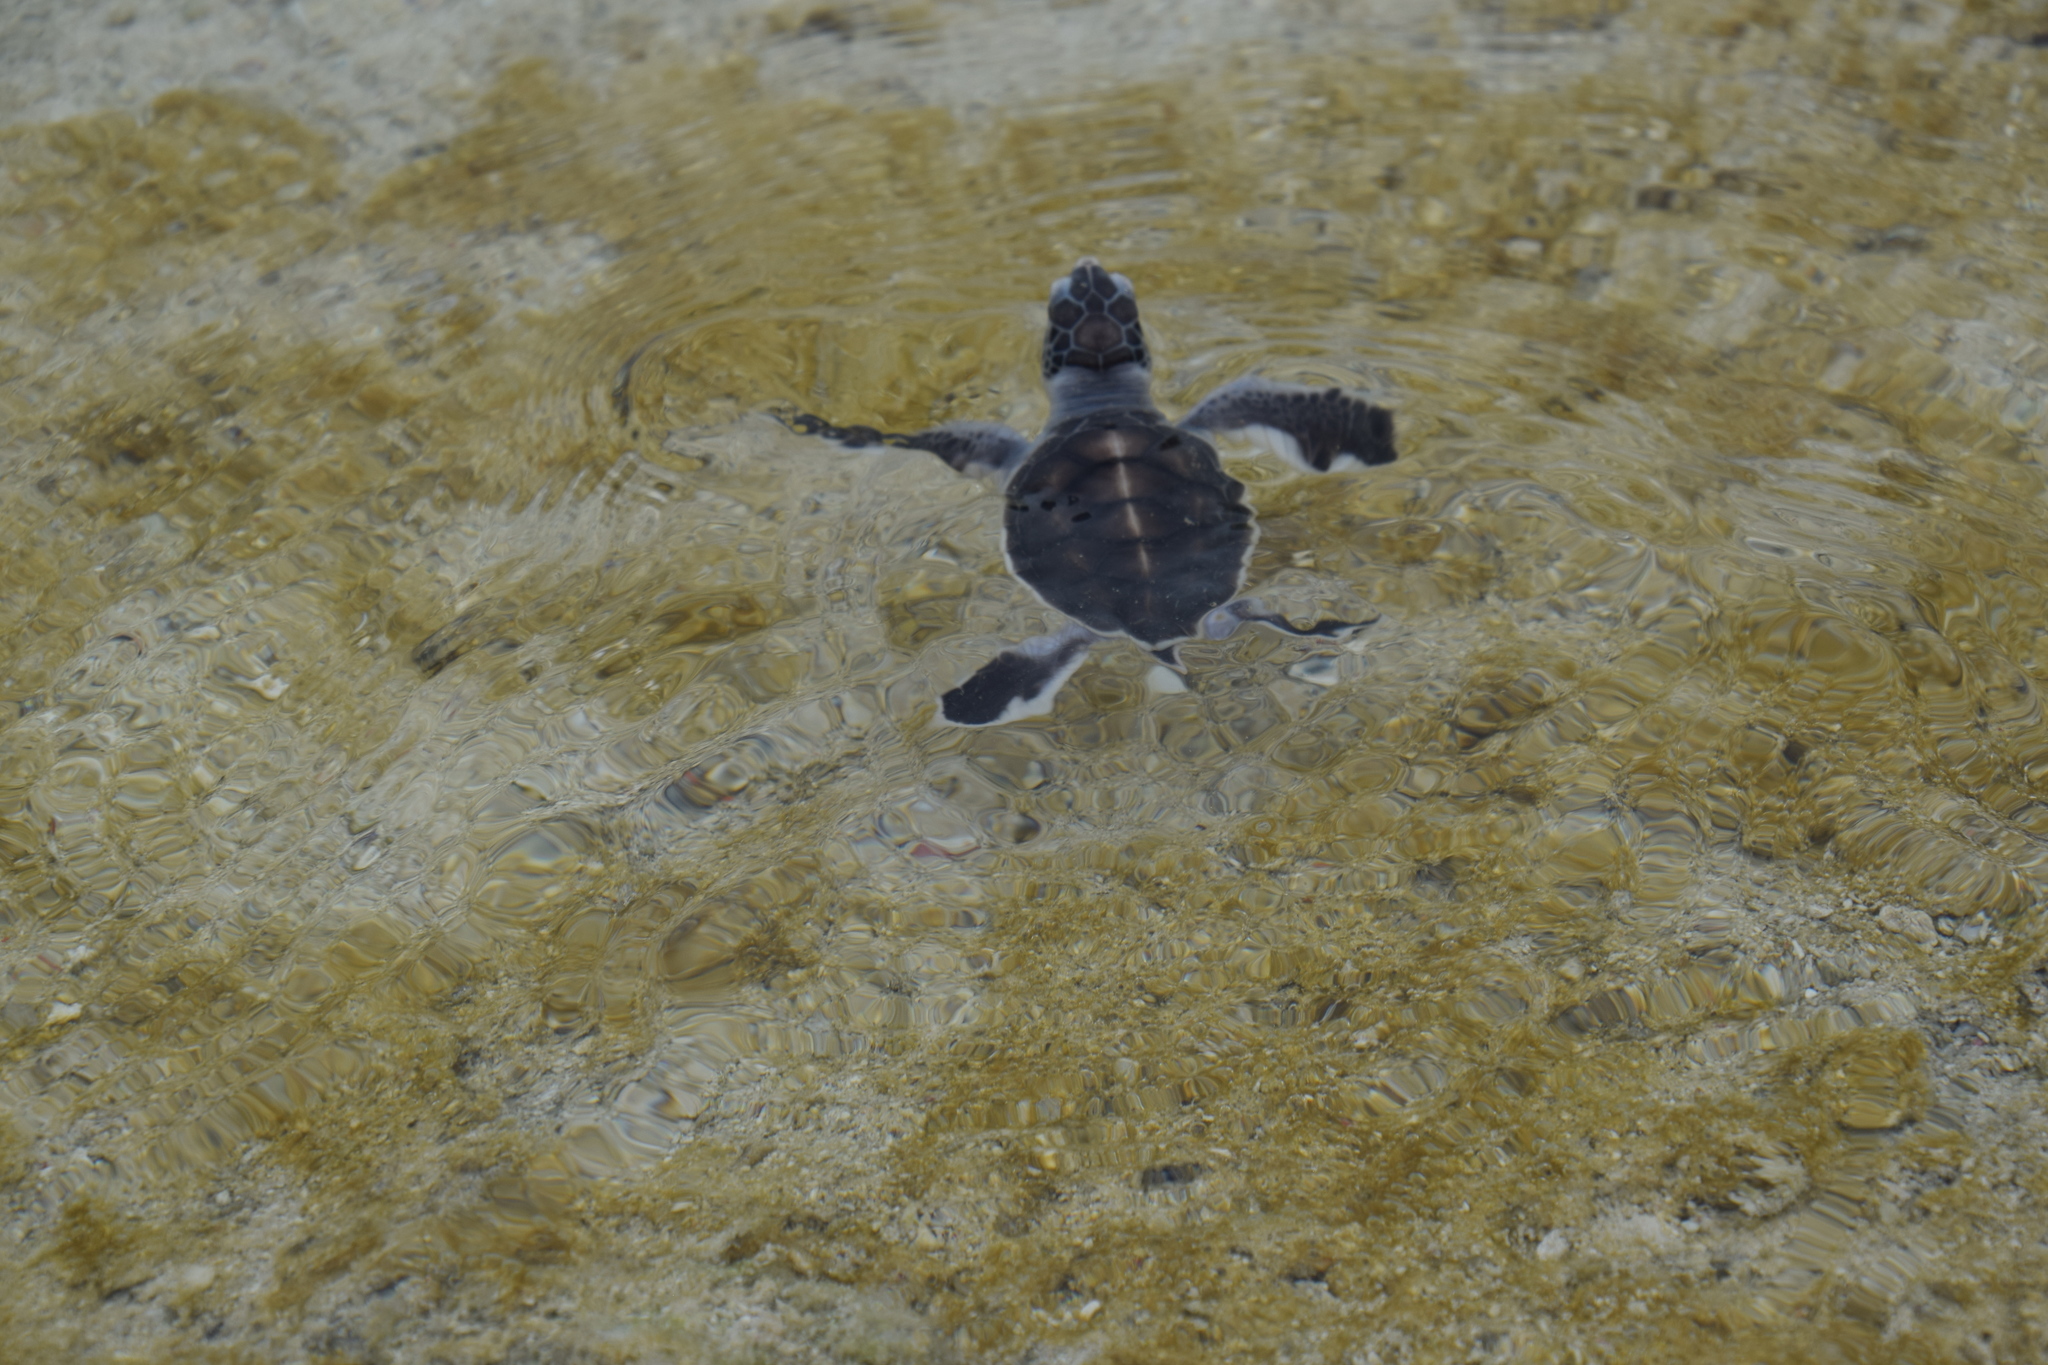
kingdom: Animalia
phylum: Chordata
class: Testudines
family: Cheloniidae
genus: Chelonia
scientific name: Chelonia mydas
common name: Green turtle
